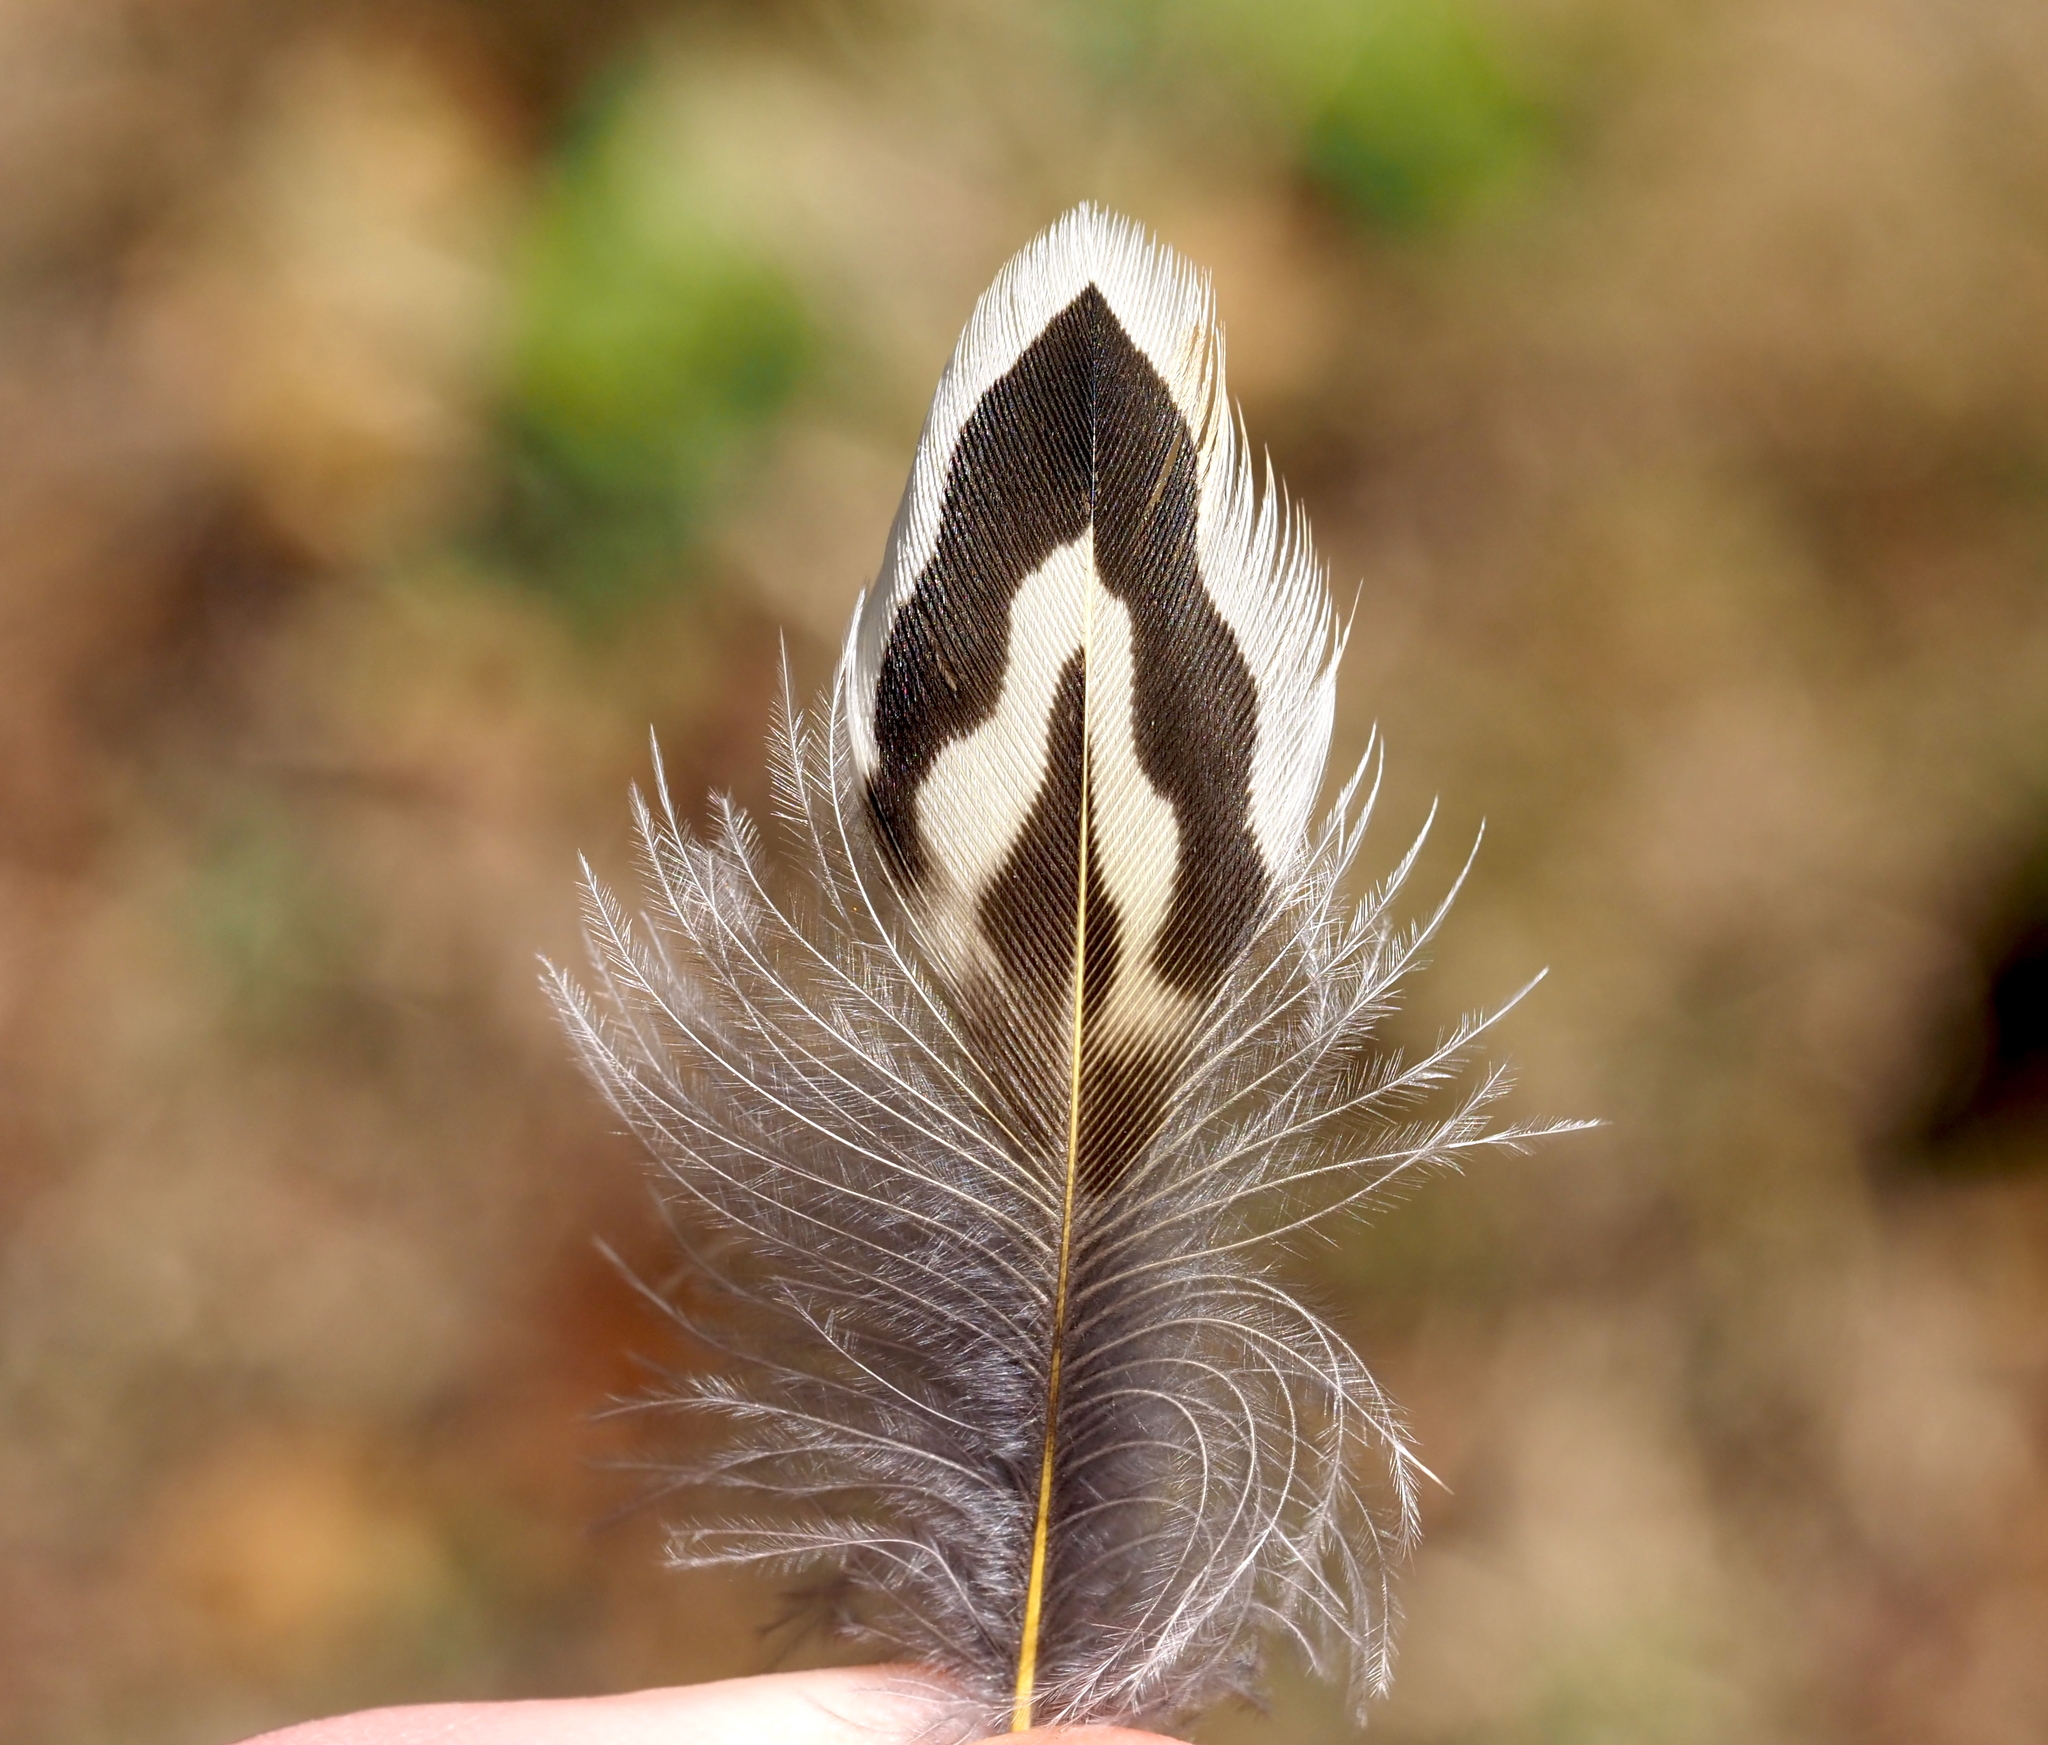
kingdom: Animalia
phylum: Chordata
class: Aves
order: Piciformes
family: Picidae
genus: Colaptes
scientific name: Colaptes auratus
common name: Northern flicker
